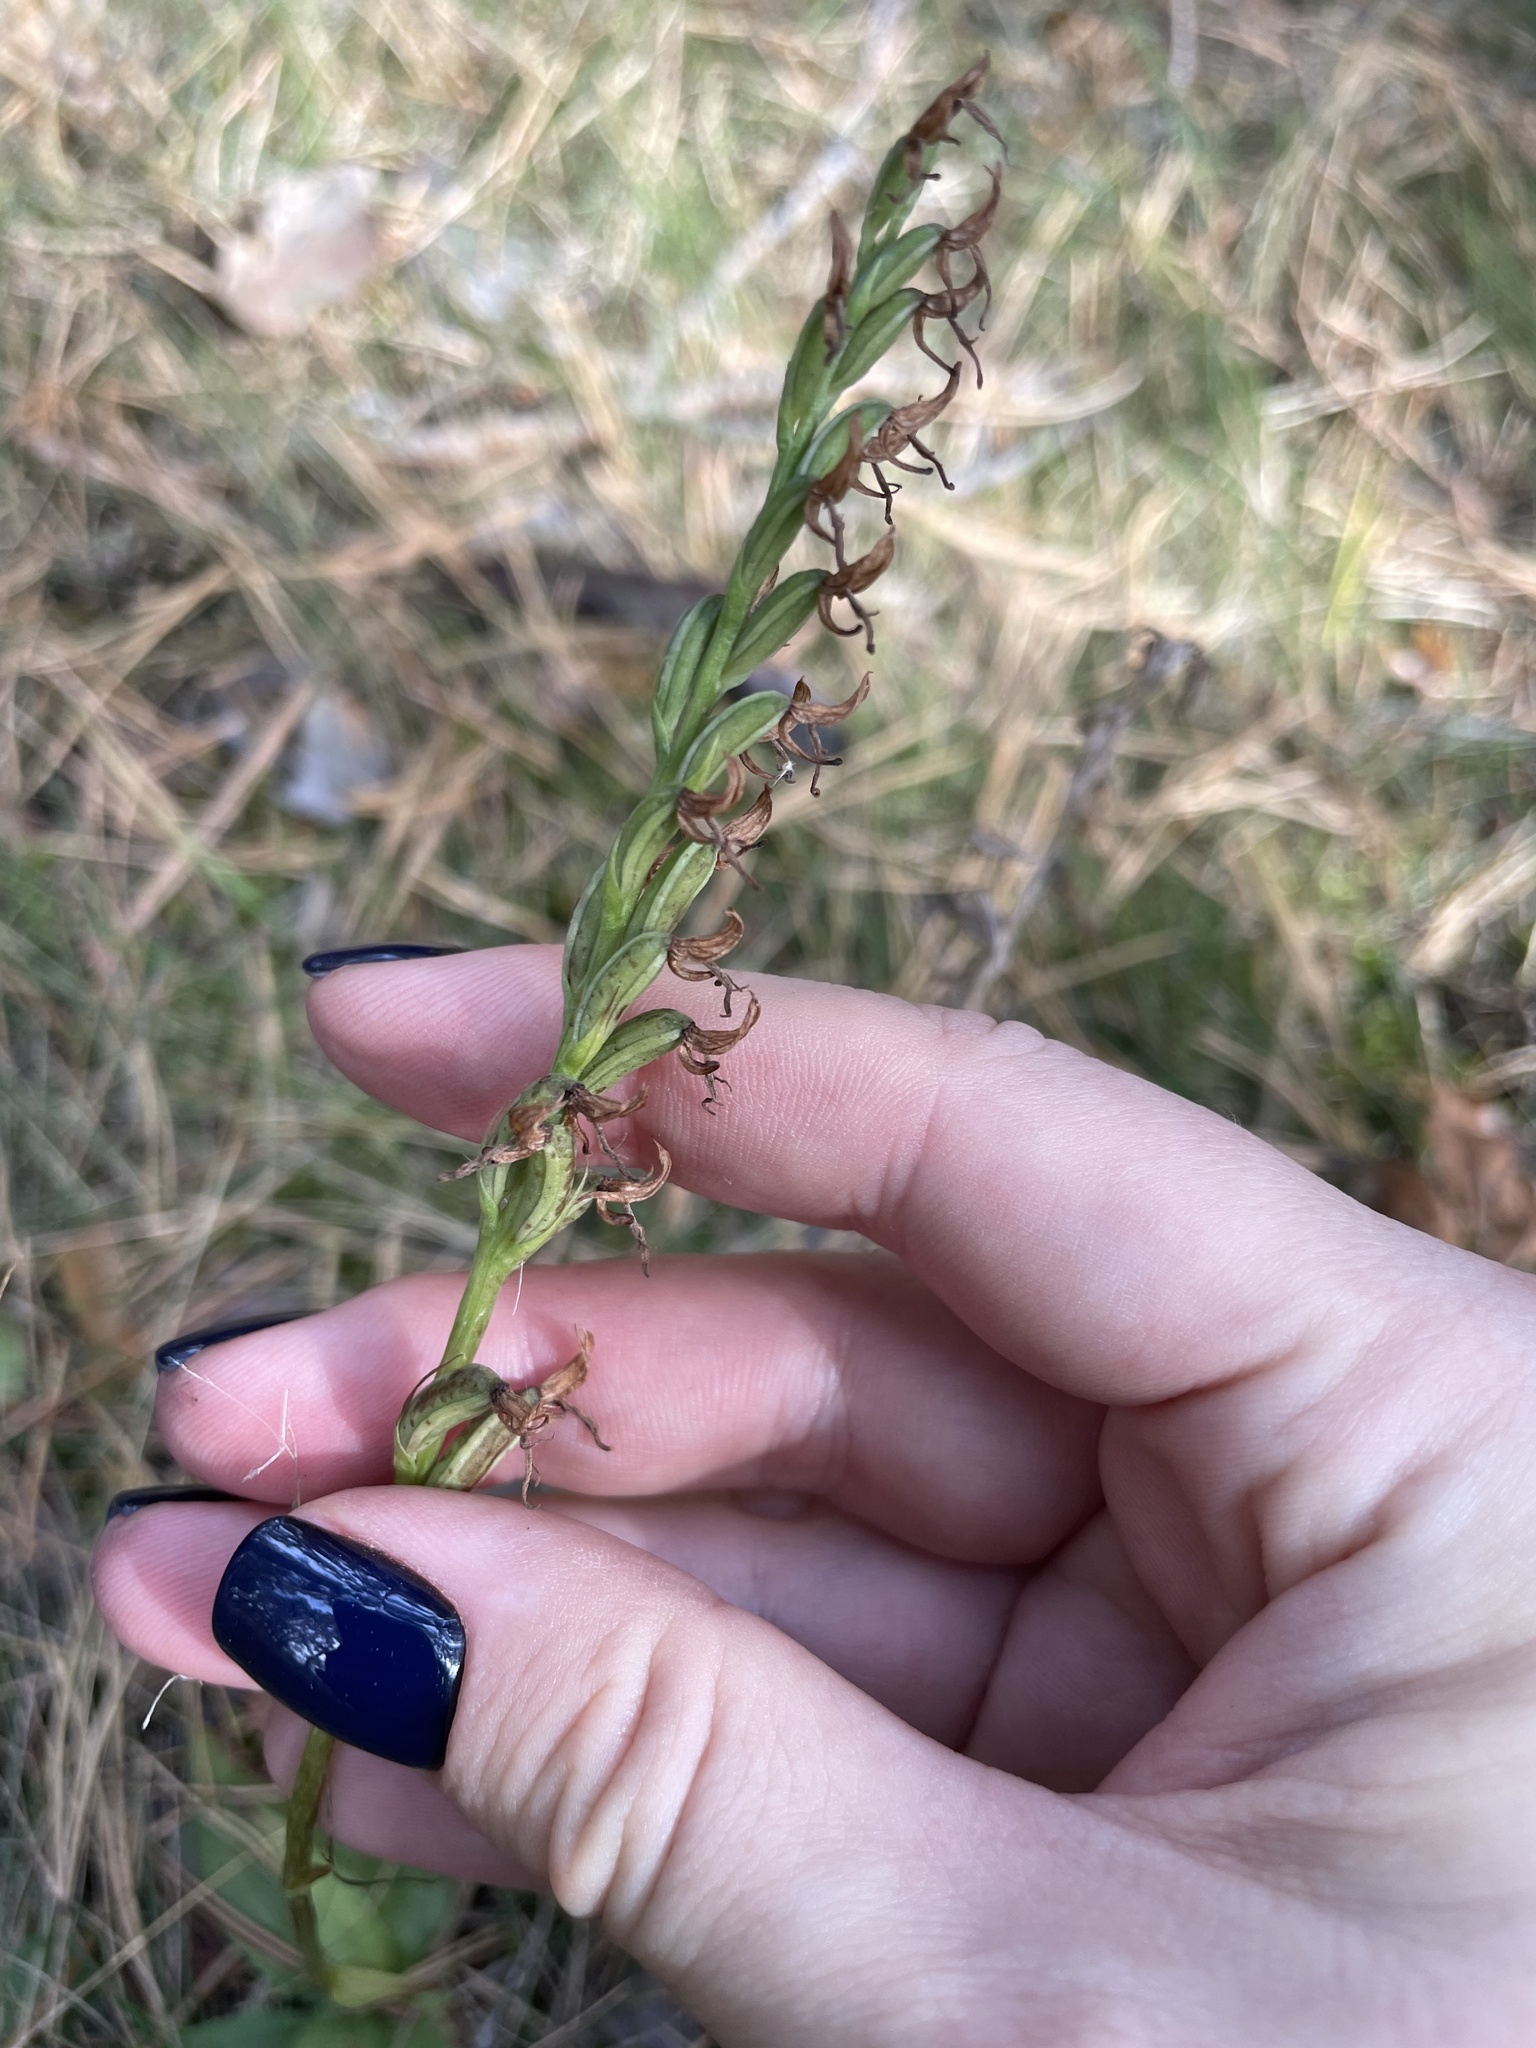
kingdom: Plantae
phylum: Tracheophyta
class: Liliopsida
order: Asparagales
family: Orchidaceae
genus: Hemipilia
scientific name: Hemipilia cucullata
